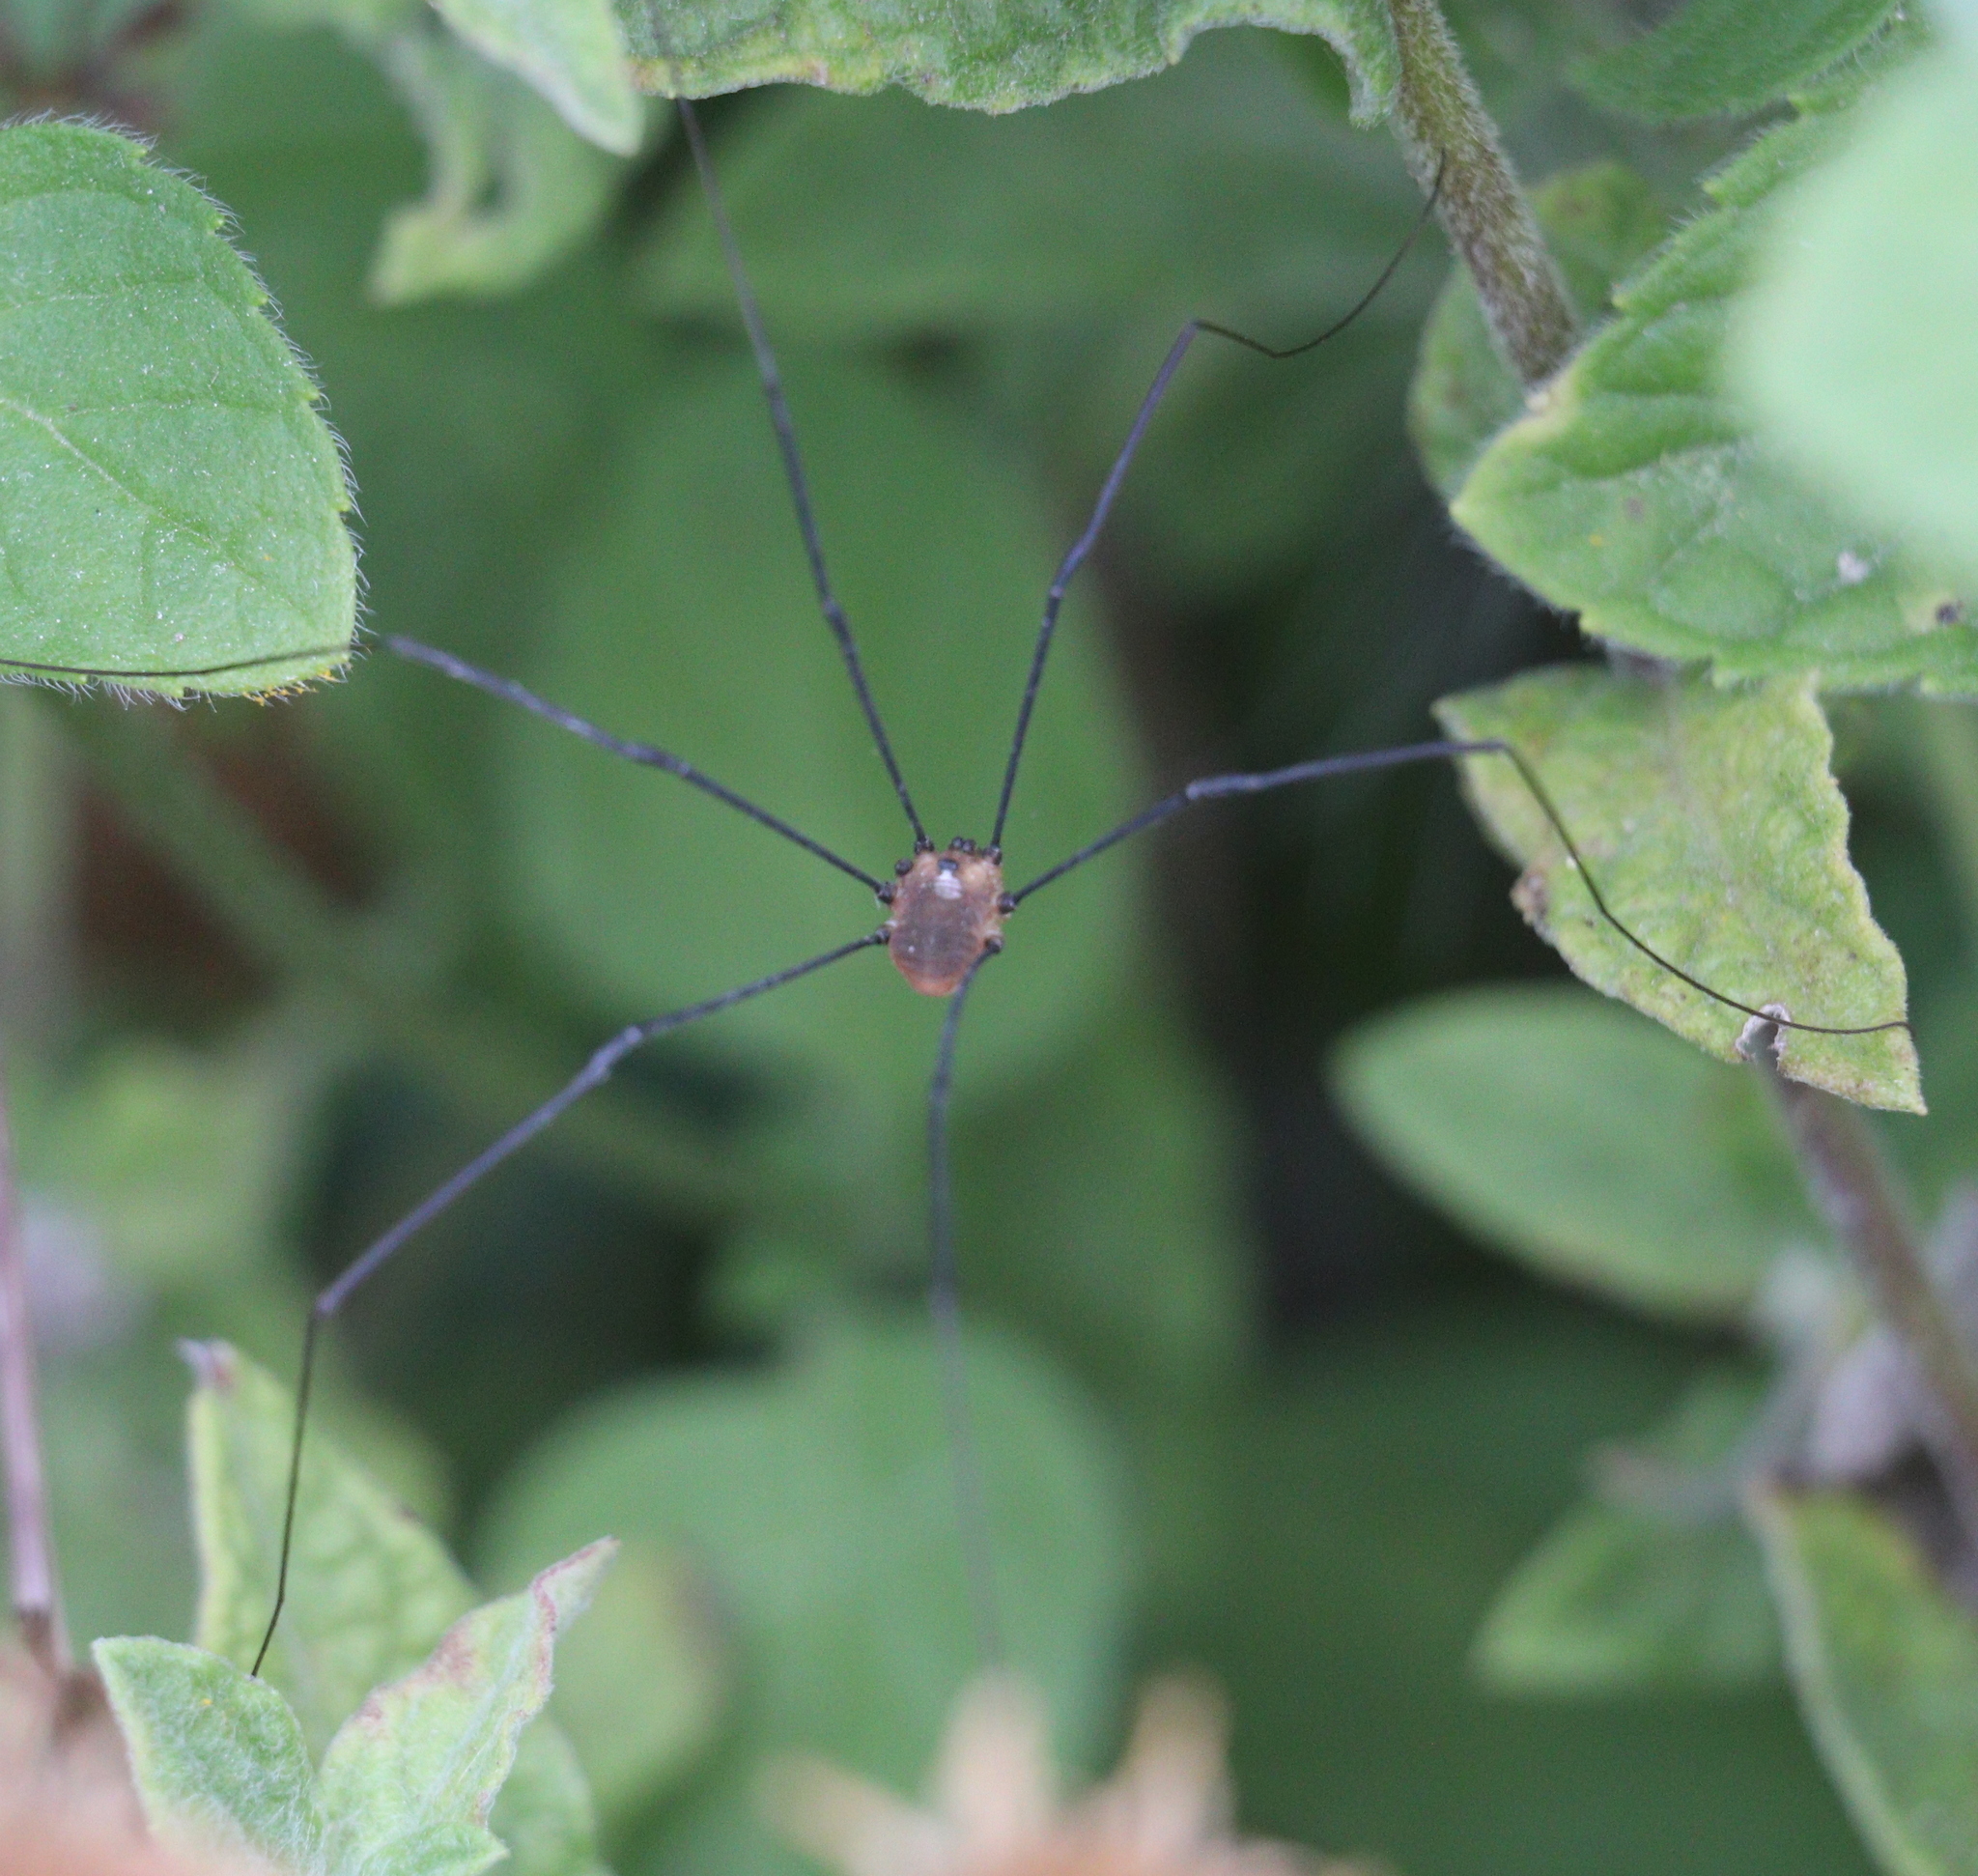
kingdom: Animalia
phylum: Arthropoda
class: Arachnida
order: Opiliones
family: Sclerosomatidae
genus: Leiobunum
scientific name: Leiobunum rotundum
